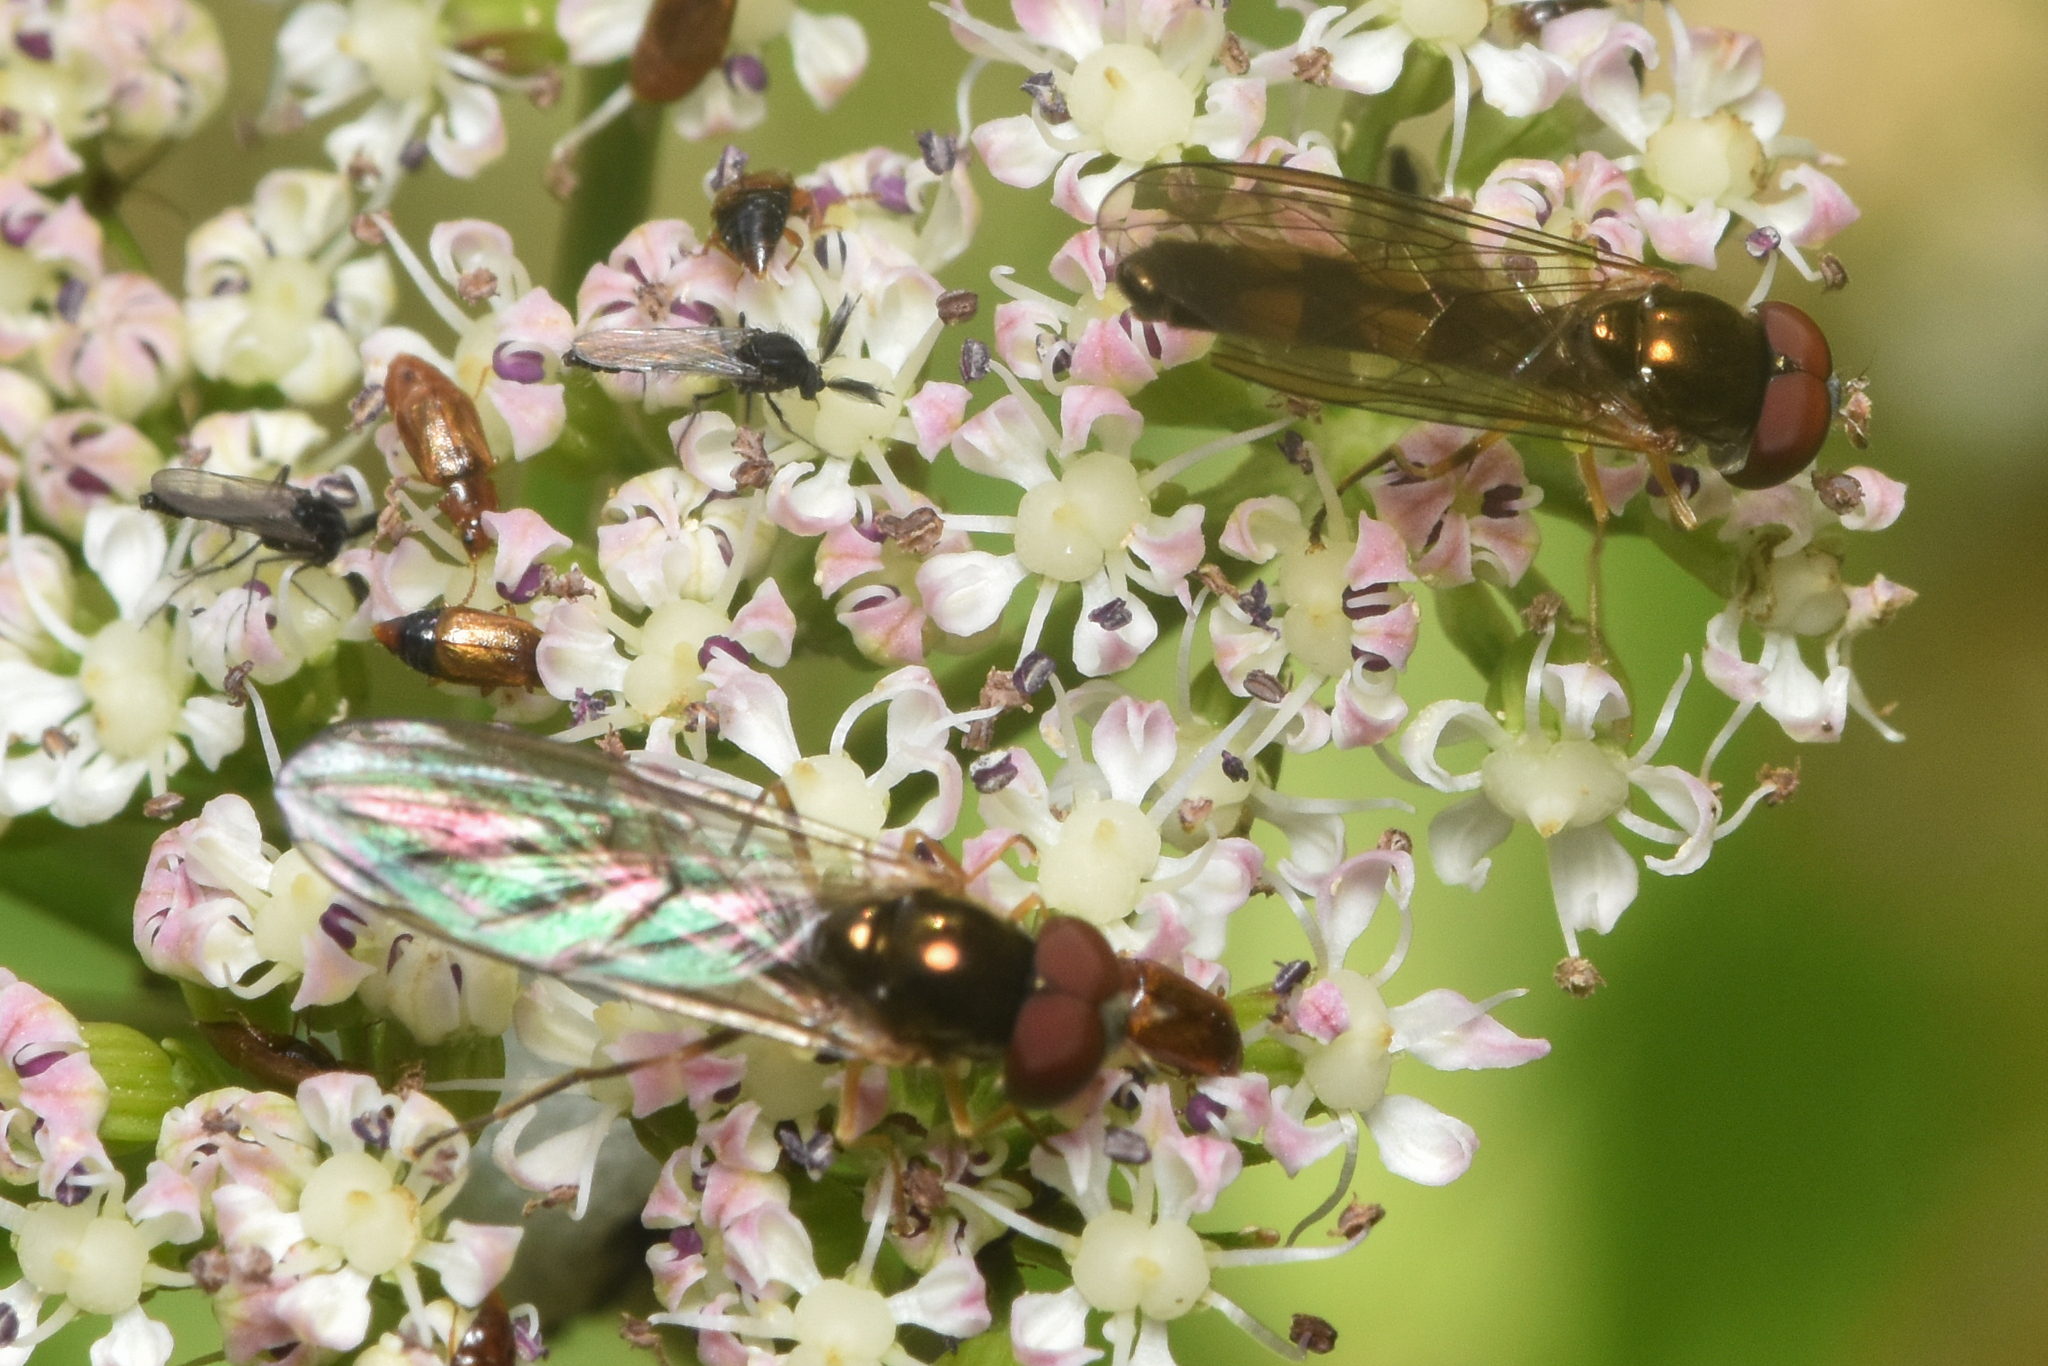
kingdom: Animalia
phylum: Arthropoda
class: Insecta
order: Diptera
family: Syrphidae
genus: Melanostoma
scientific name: Melanostoma mellina
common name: Hover fly
